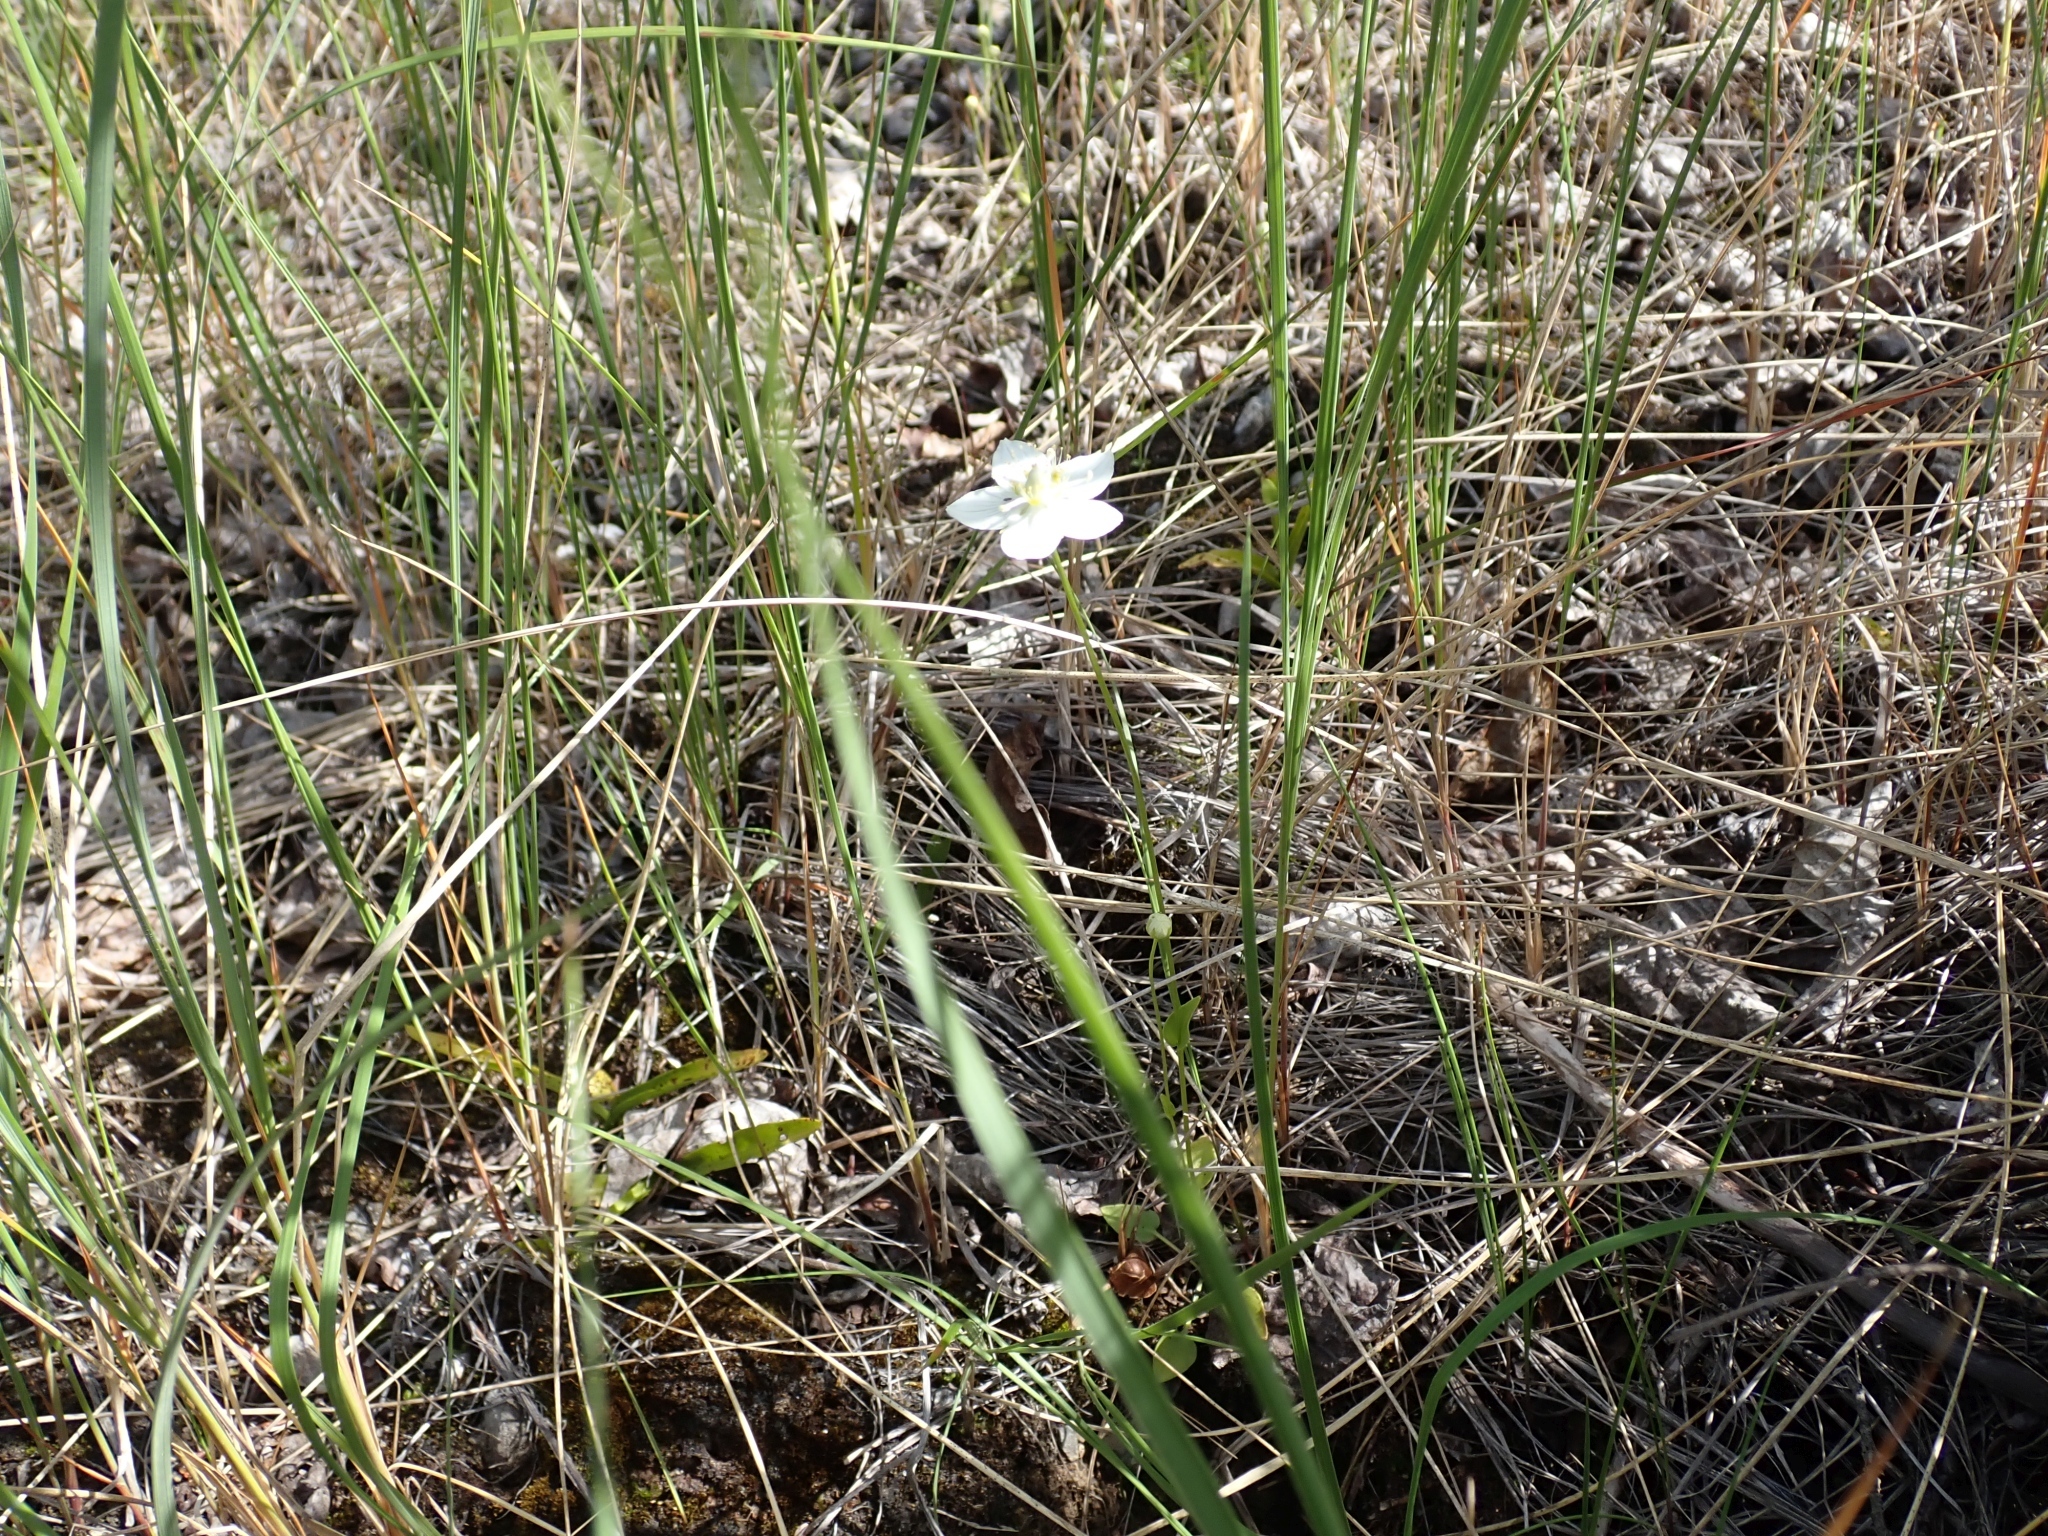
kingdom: Plantae
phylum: Tracheophyta
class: Magnoliopsida
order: Celastrales
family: Parnassiaceae
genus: Parnassia
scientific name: Parnassia palustris
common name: Grass-of-parnassus
